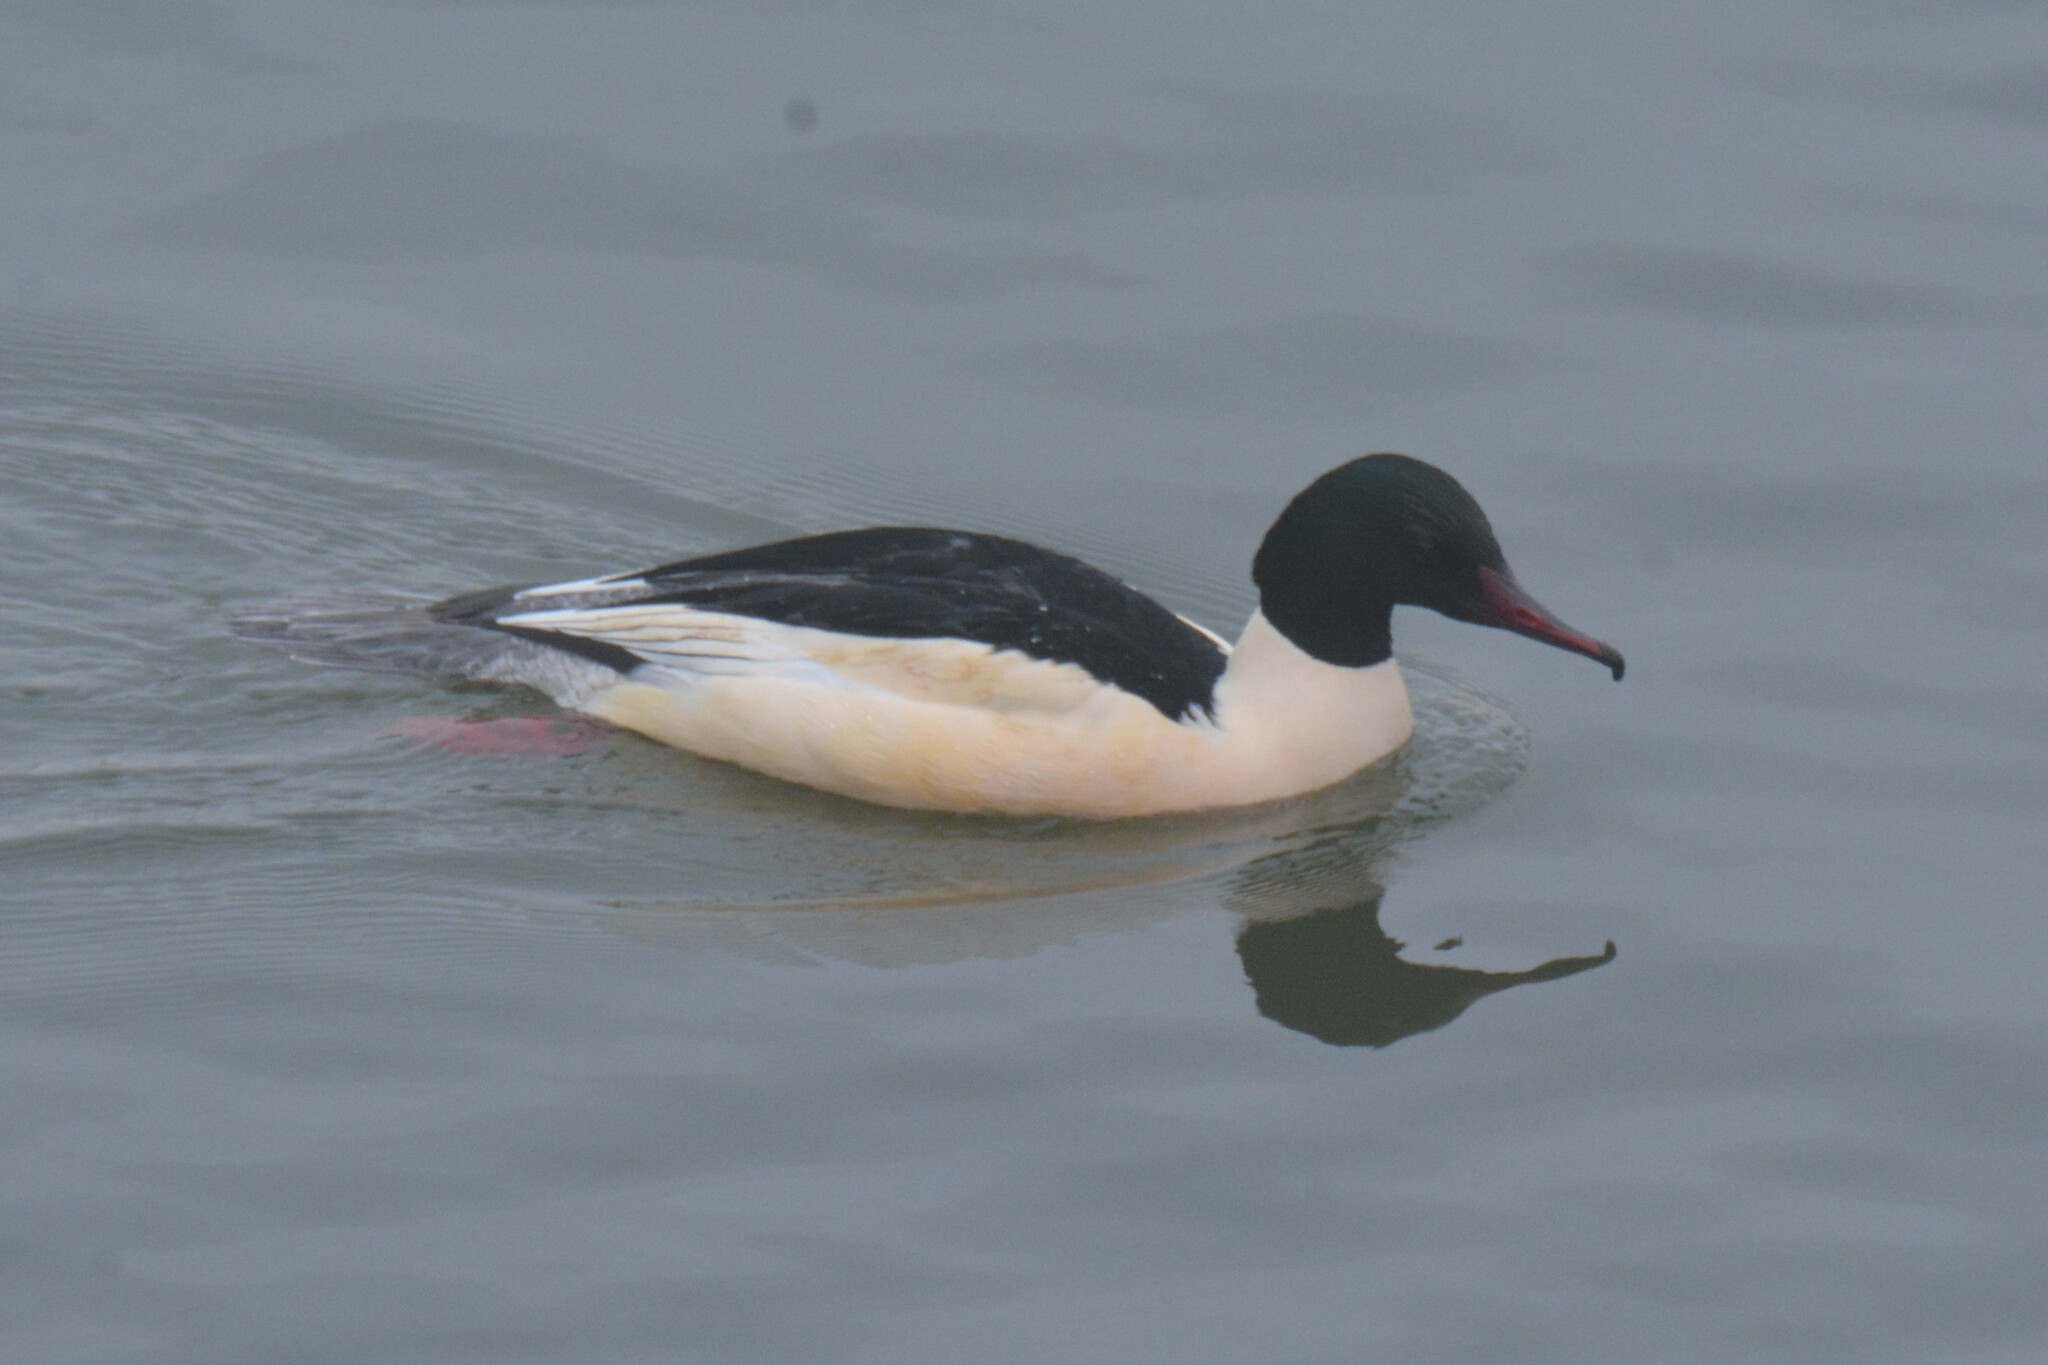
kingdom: Animalia
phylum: Chordata
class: Aves
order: Anseriformes
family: Anatidae
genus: Mergus
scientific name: Mergus merganser
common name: Common merganser
